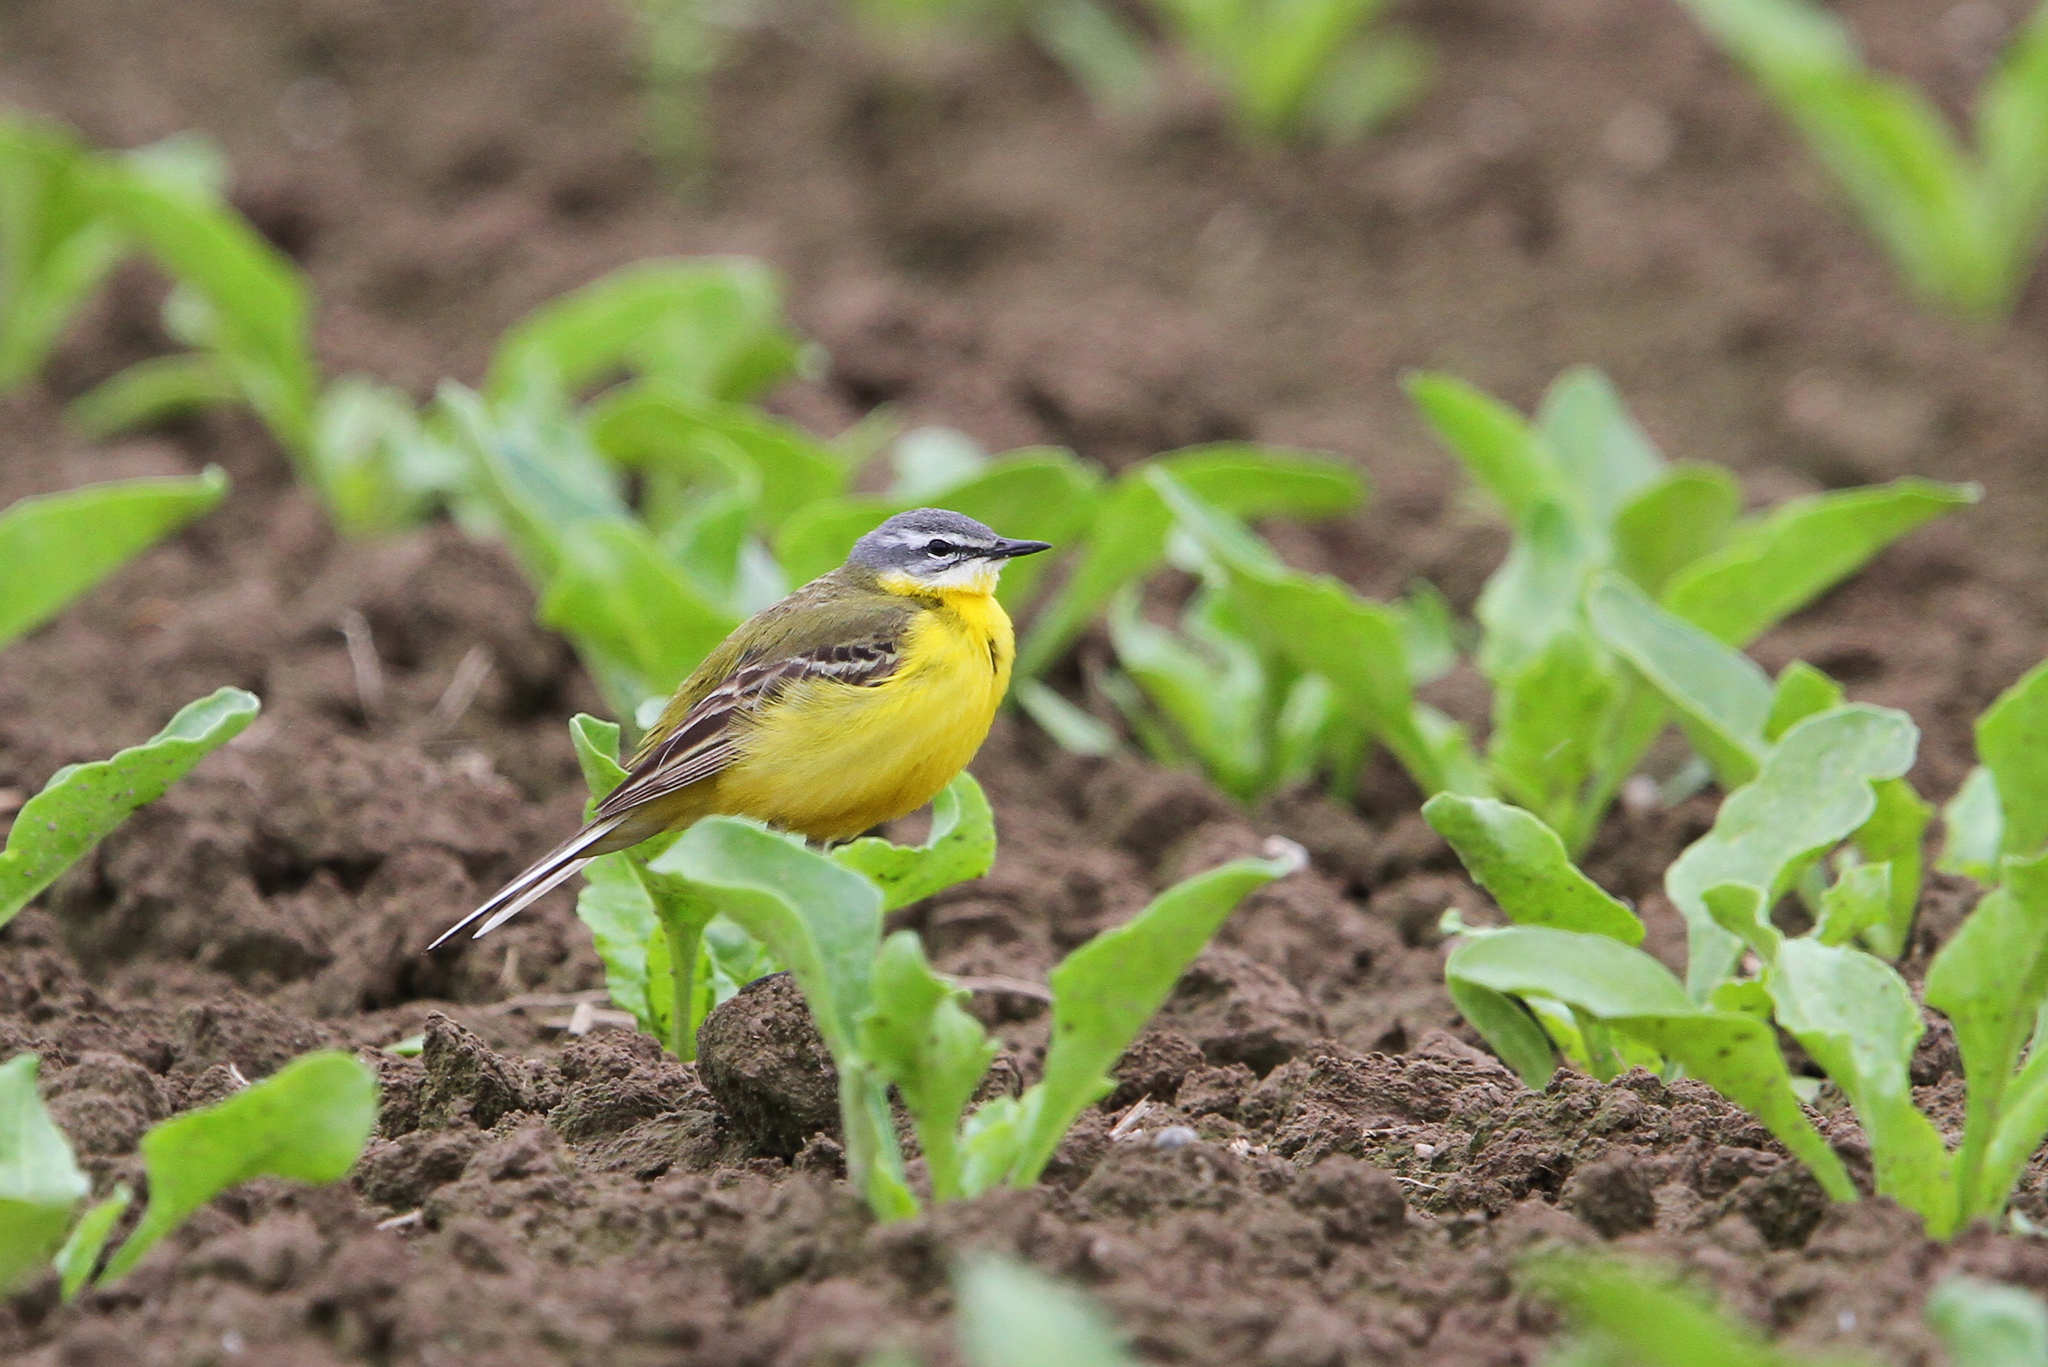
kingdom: Animalia
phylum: Chordata
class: Aves
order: Passeriformes
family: Motacillidae
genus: Motacilla
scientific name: Motacilla flava
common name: Western yellow wagtail
